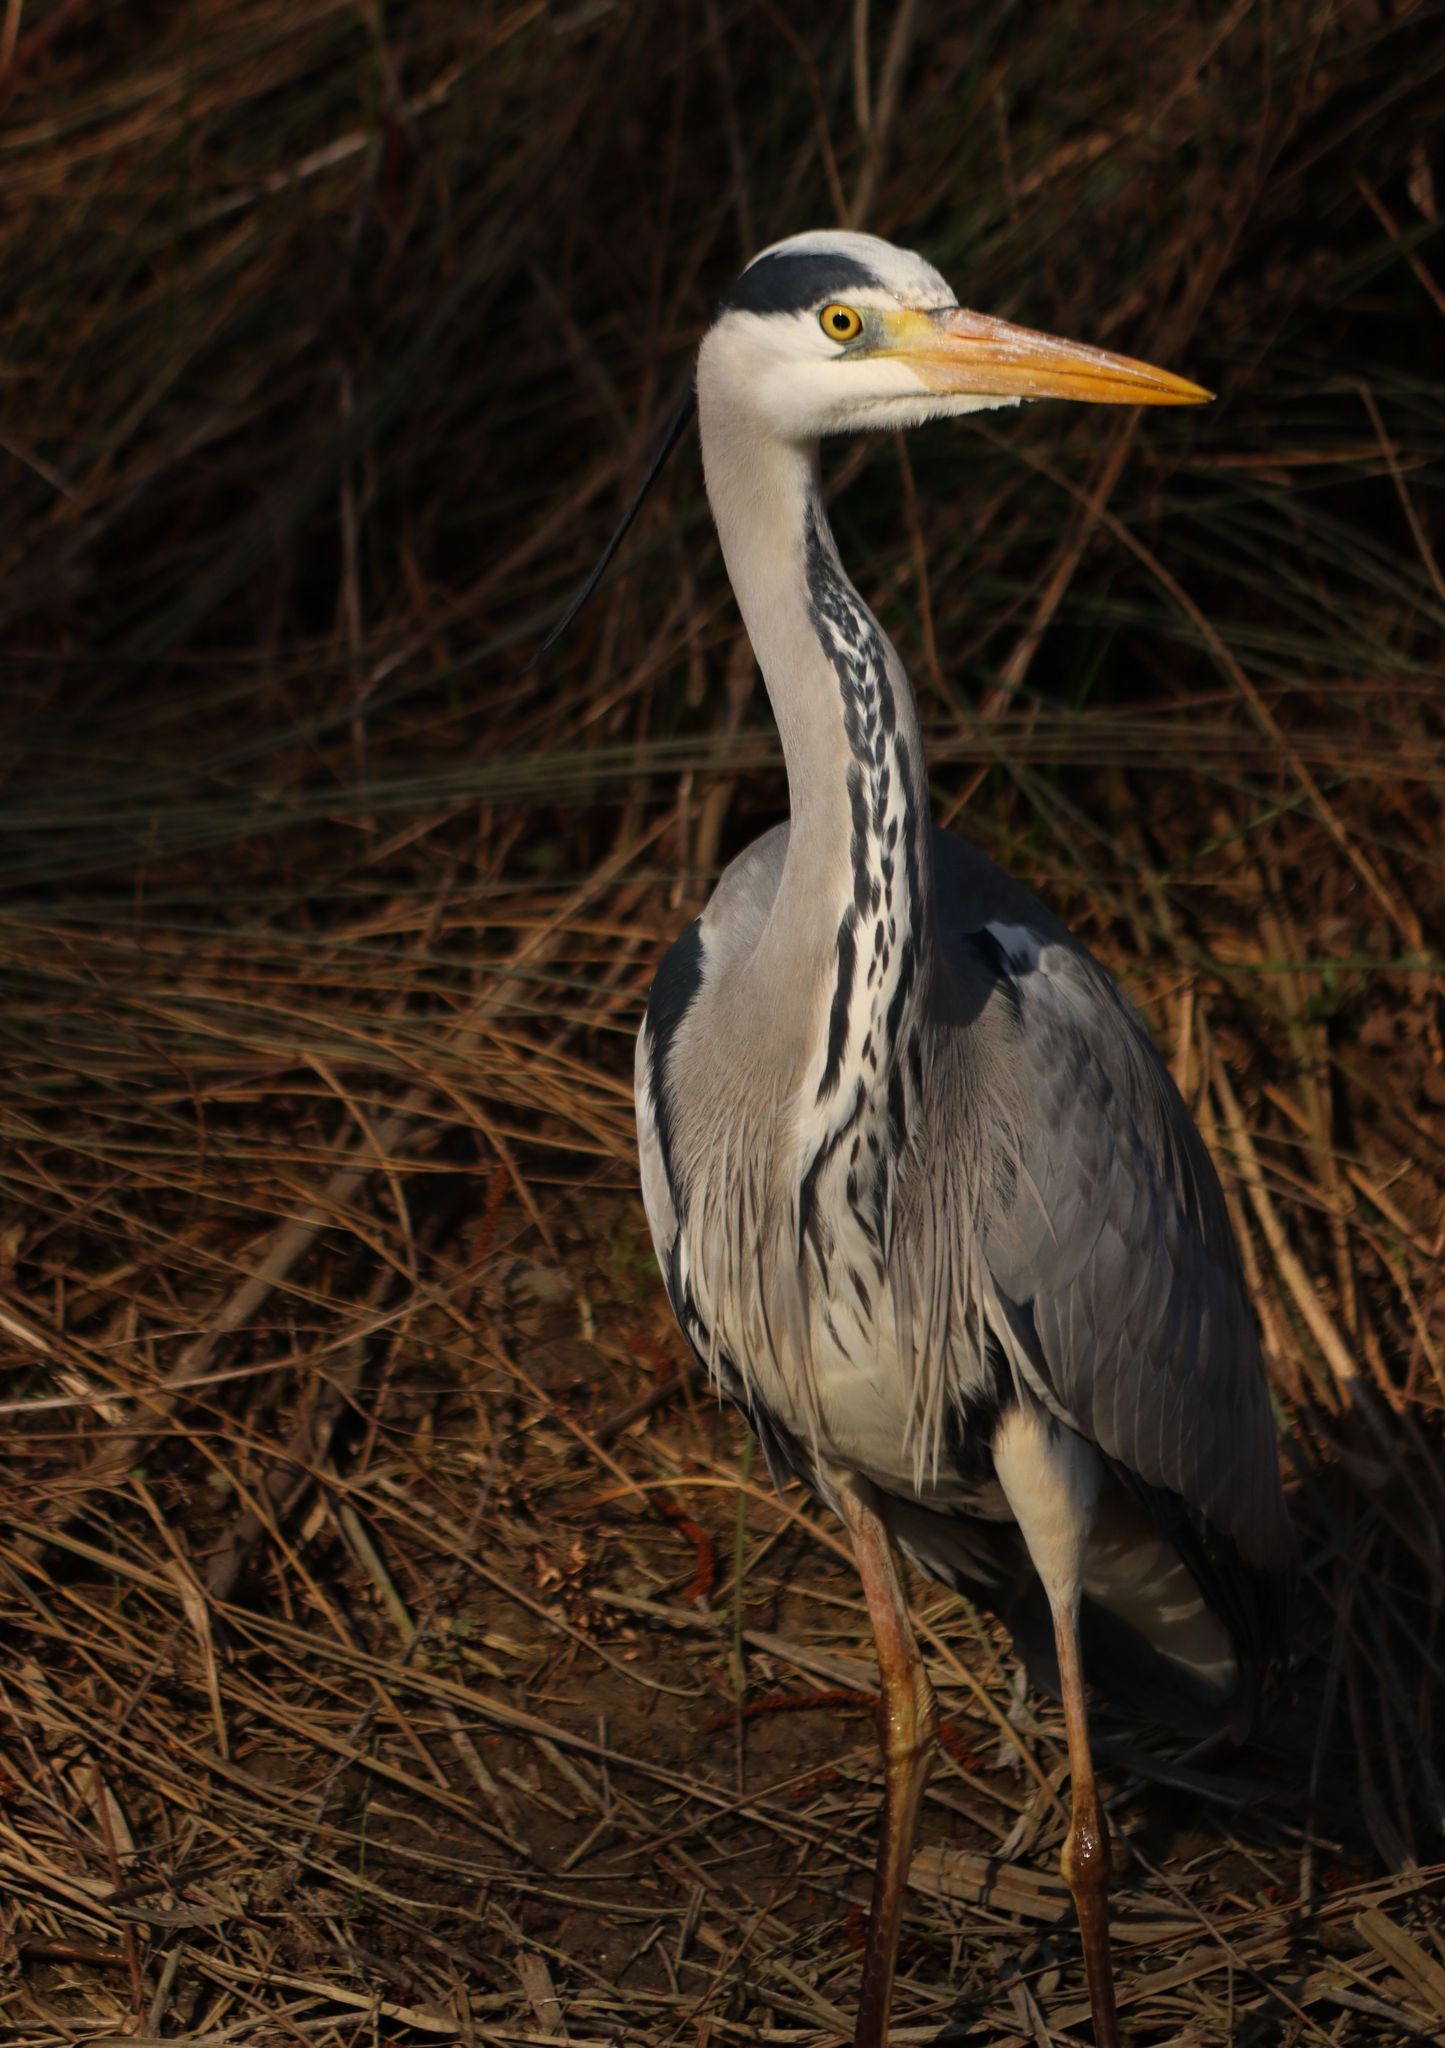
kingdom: Animalia
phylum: Chordata
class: Aves
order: Pelecaniformes
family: Ardeidae
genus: Ardea
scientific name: Ardea cinerea
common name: Grey heron
